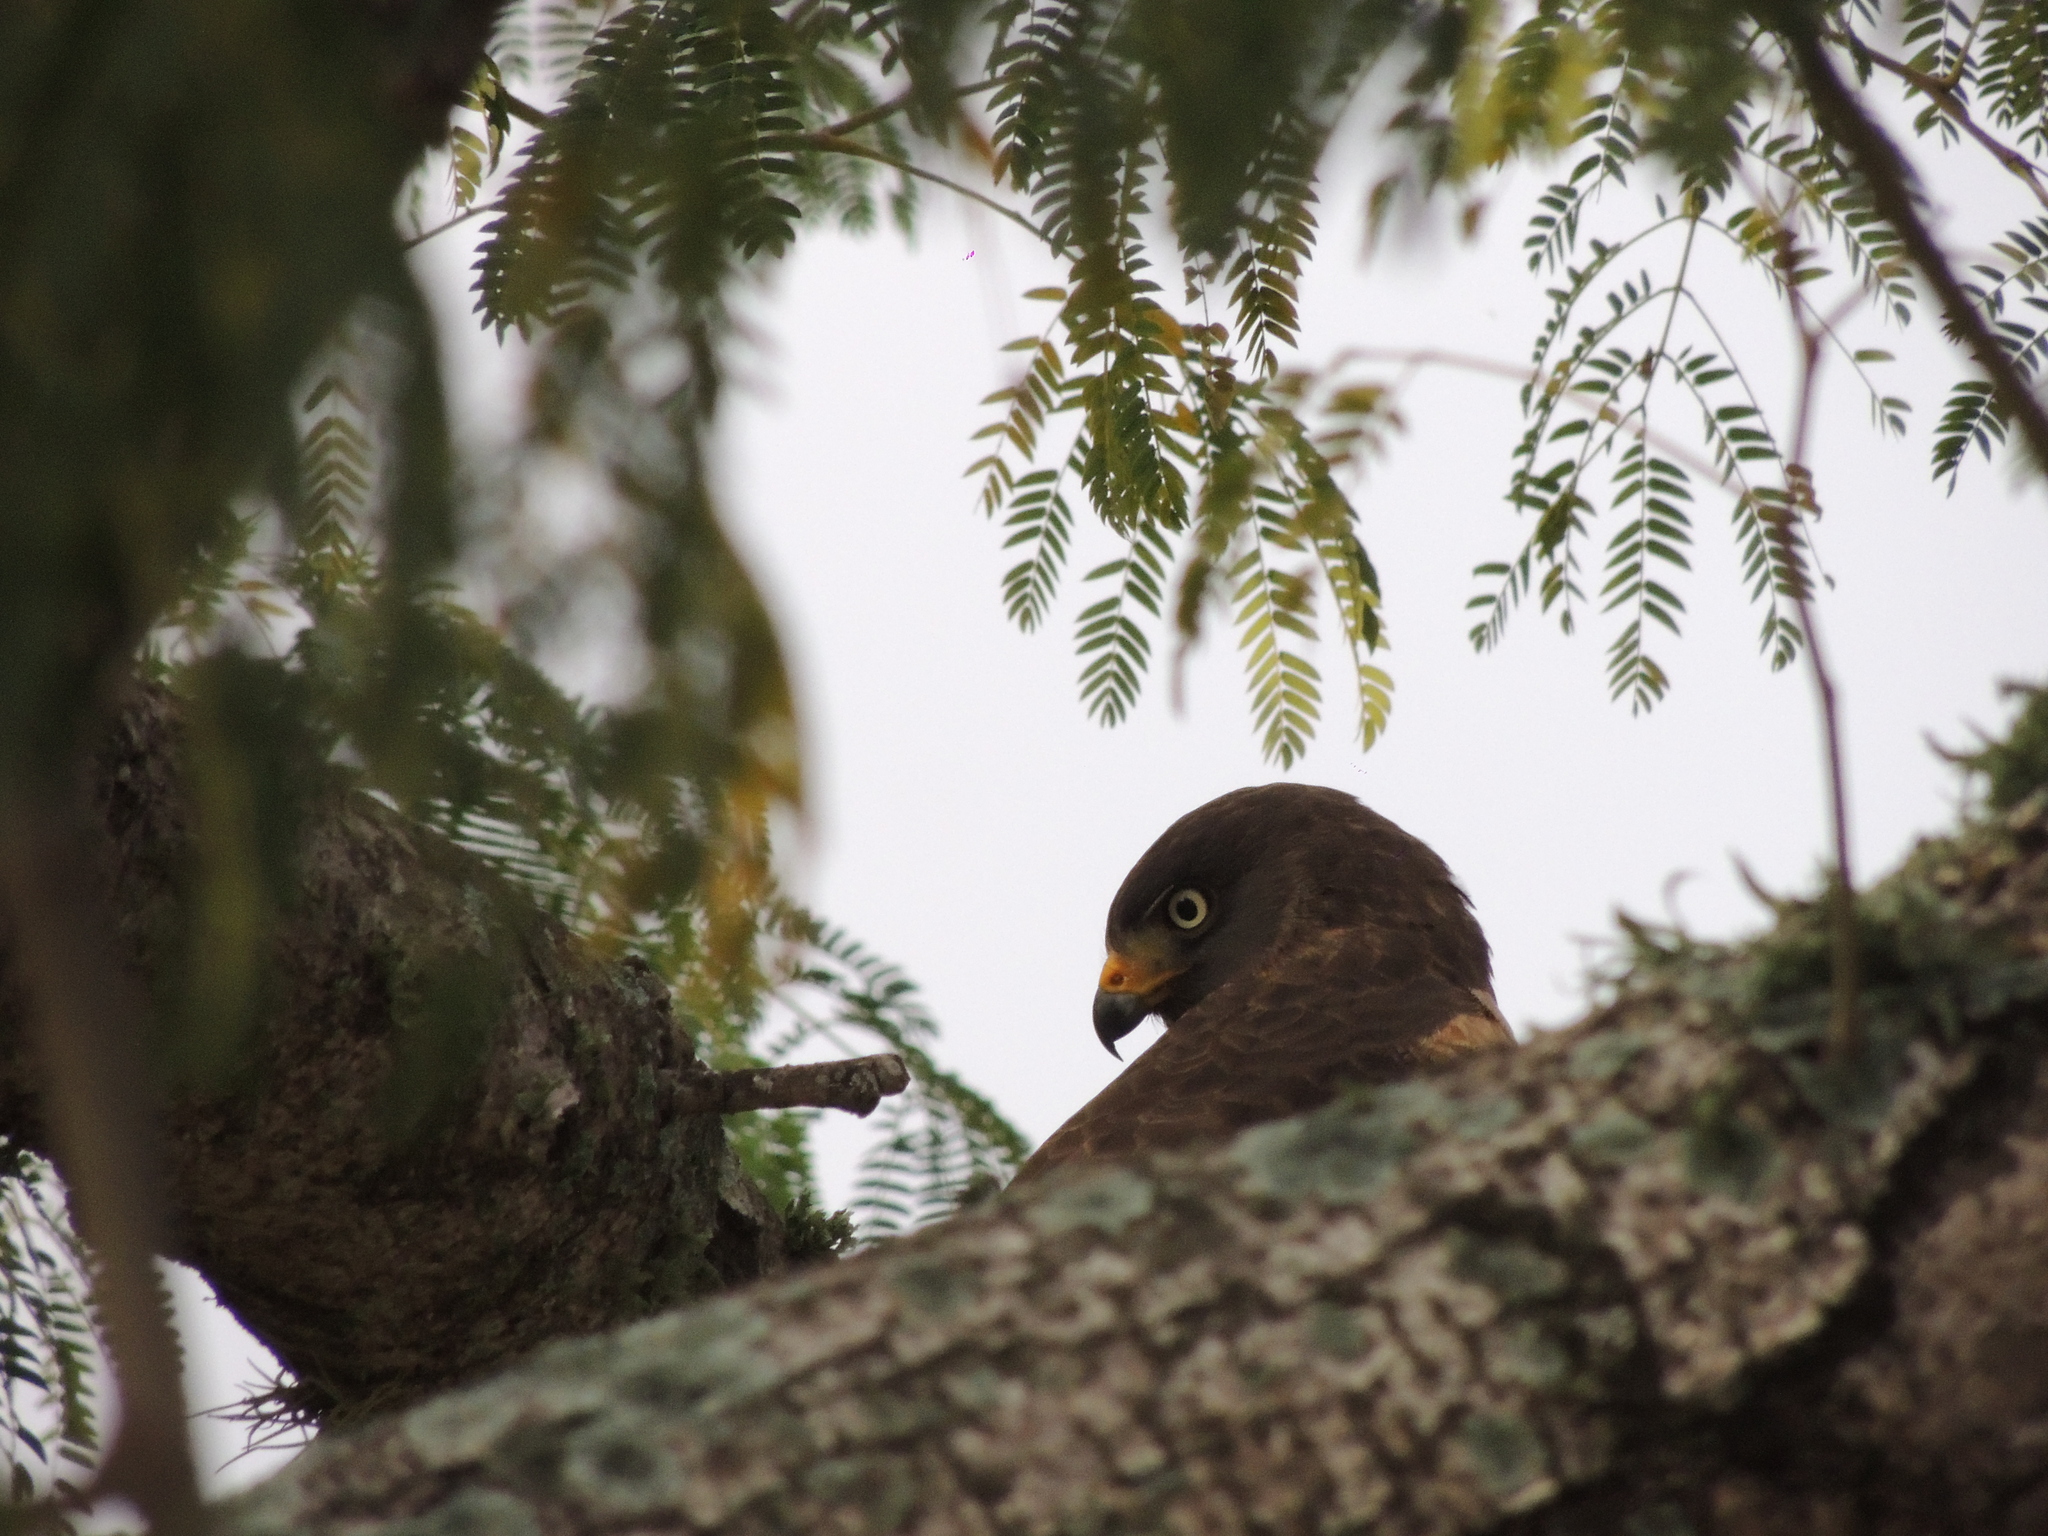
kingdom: Animalia
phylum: Chordata
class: Aves
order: Accipitriformes
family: Accipitridae
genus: Rupornis
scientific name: Rupornis magnirostris
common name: Roadside hawk
